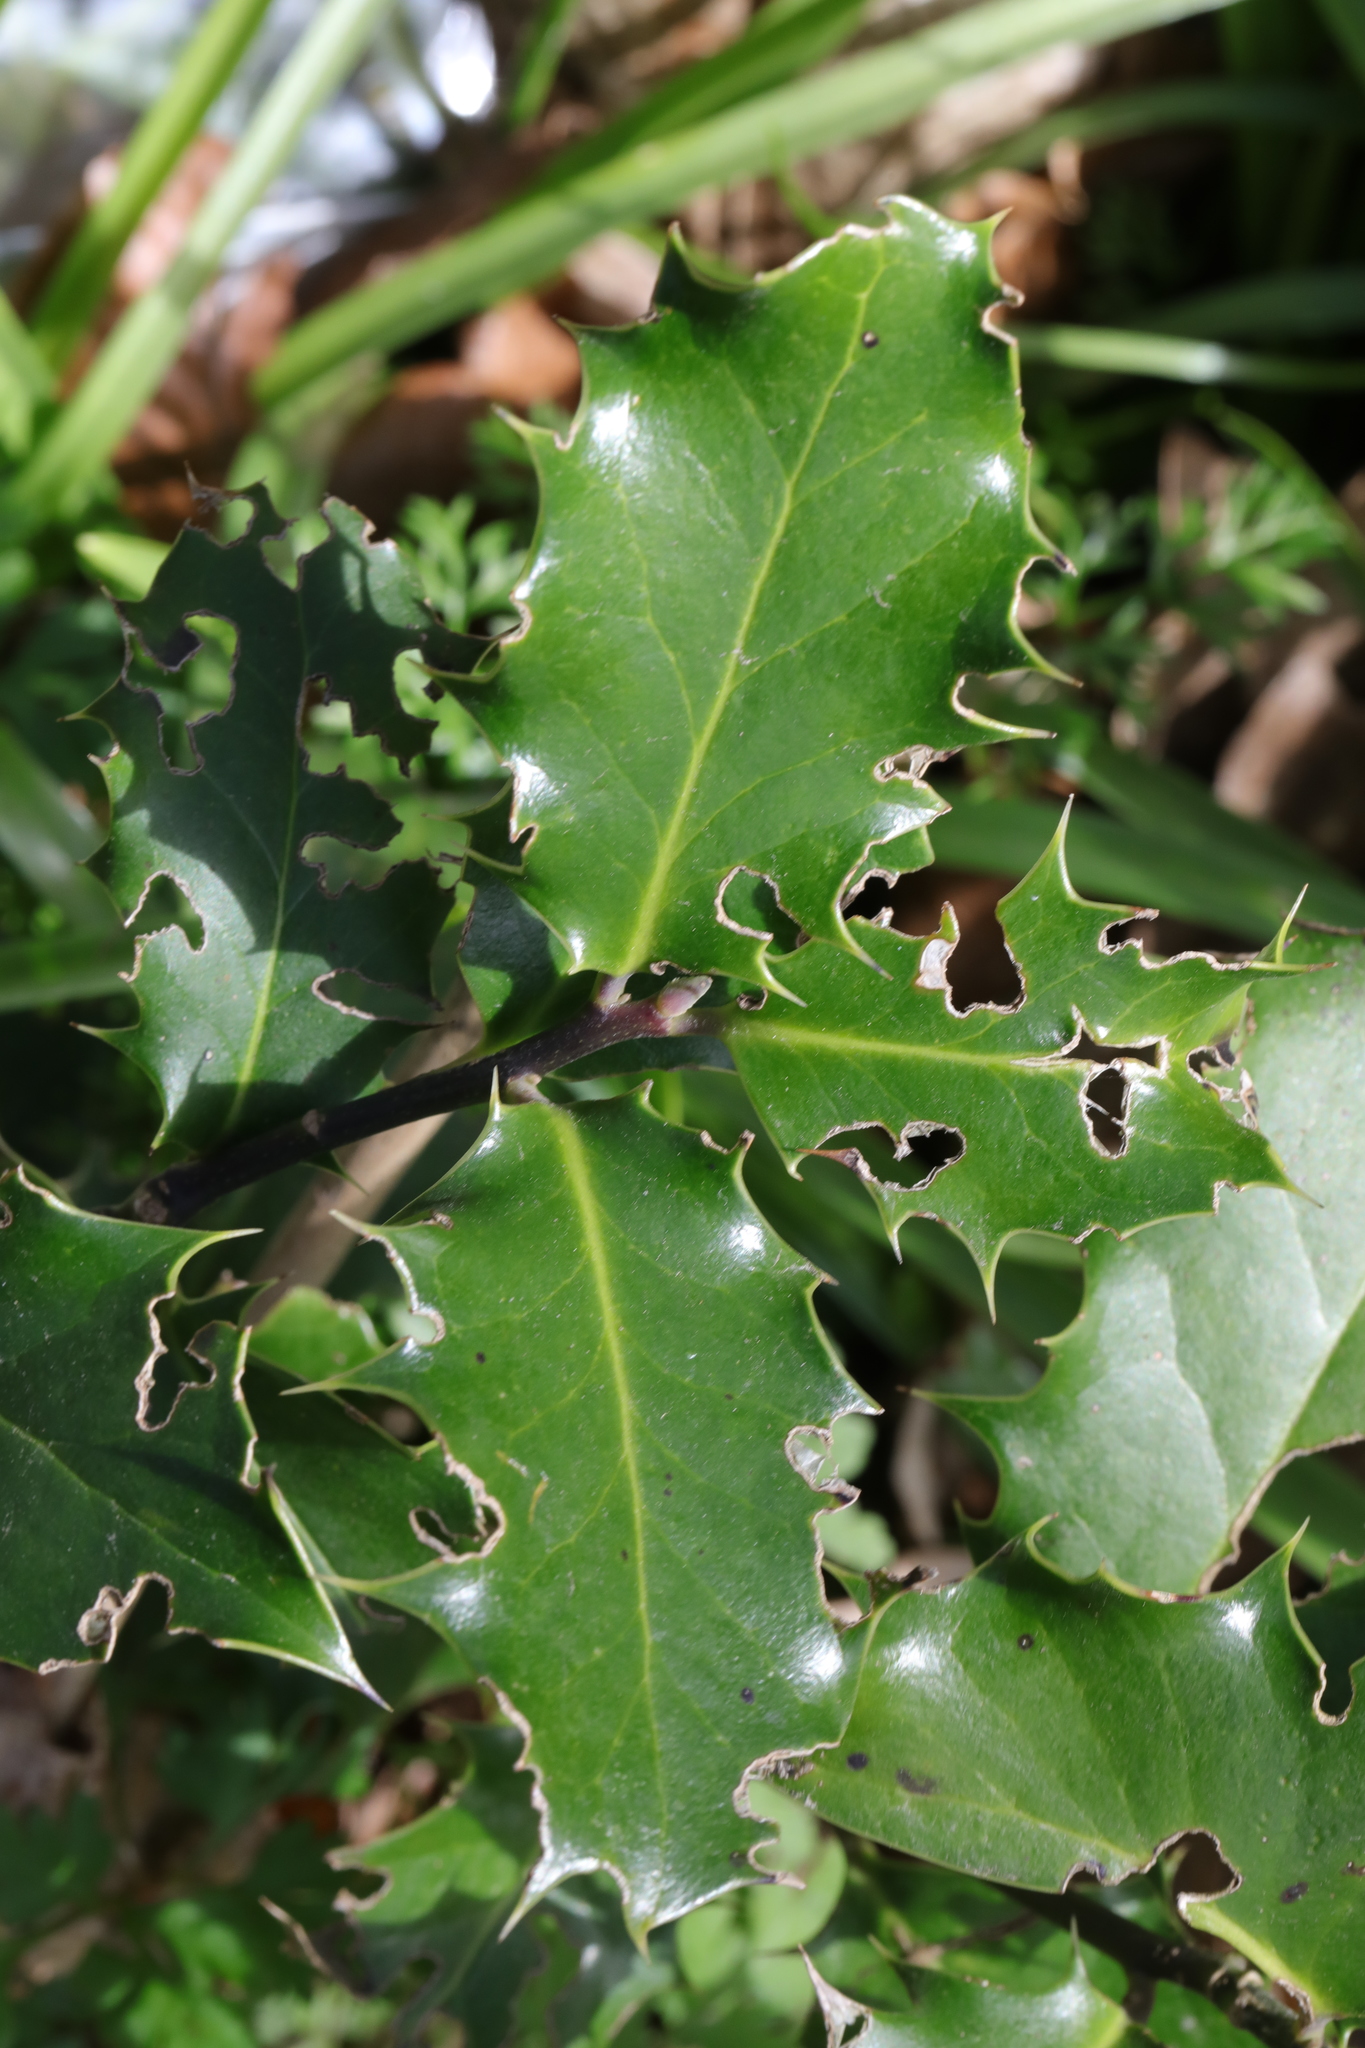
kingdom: Plantae
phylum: Tracheophyta
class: Magnoliopsida
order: Aquifoliales
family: Aquifoliaceae
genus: Ilex
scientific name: Ilex aquifolium
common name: English holly
